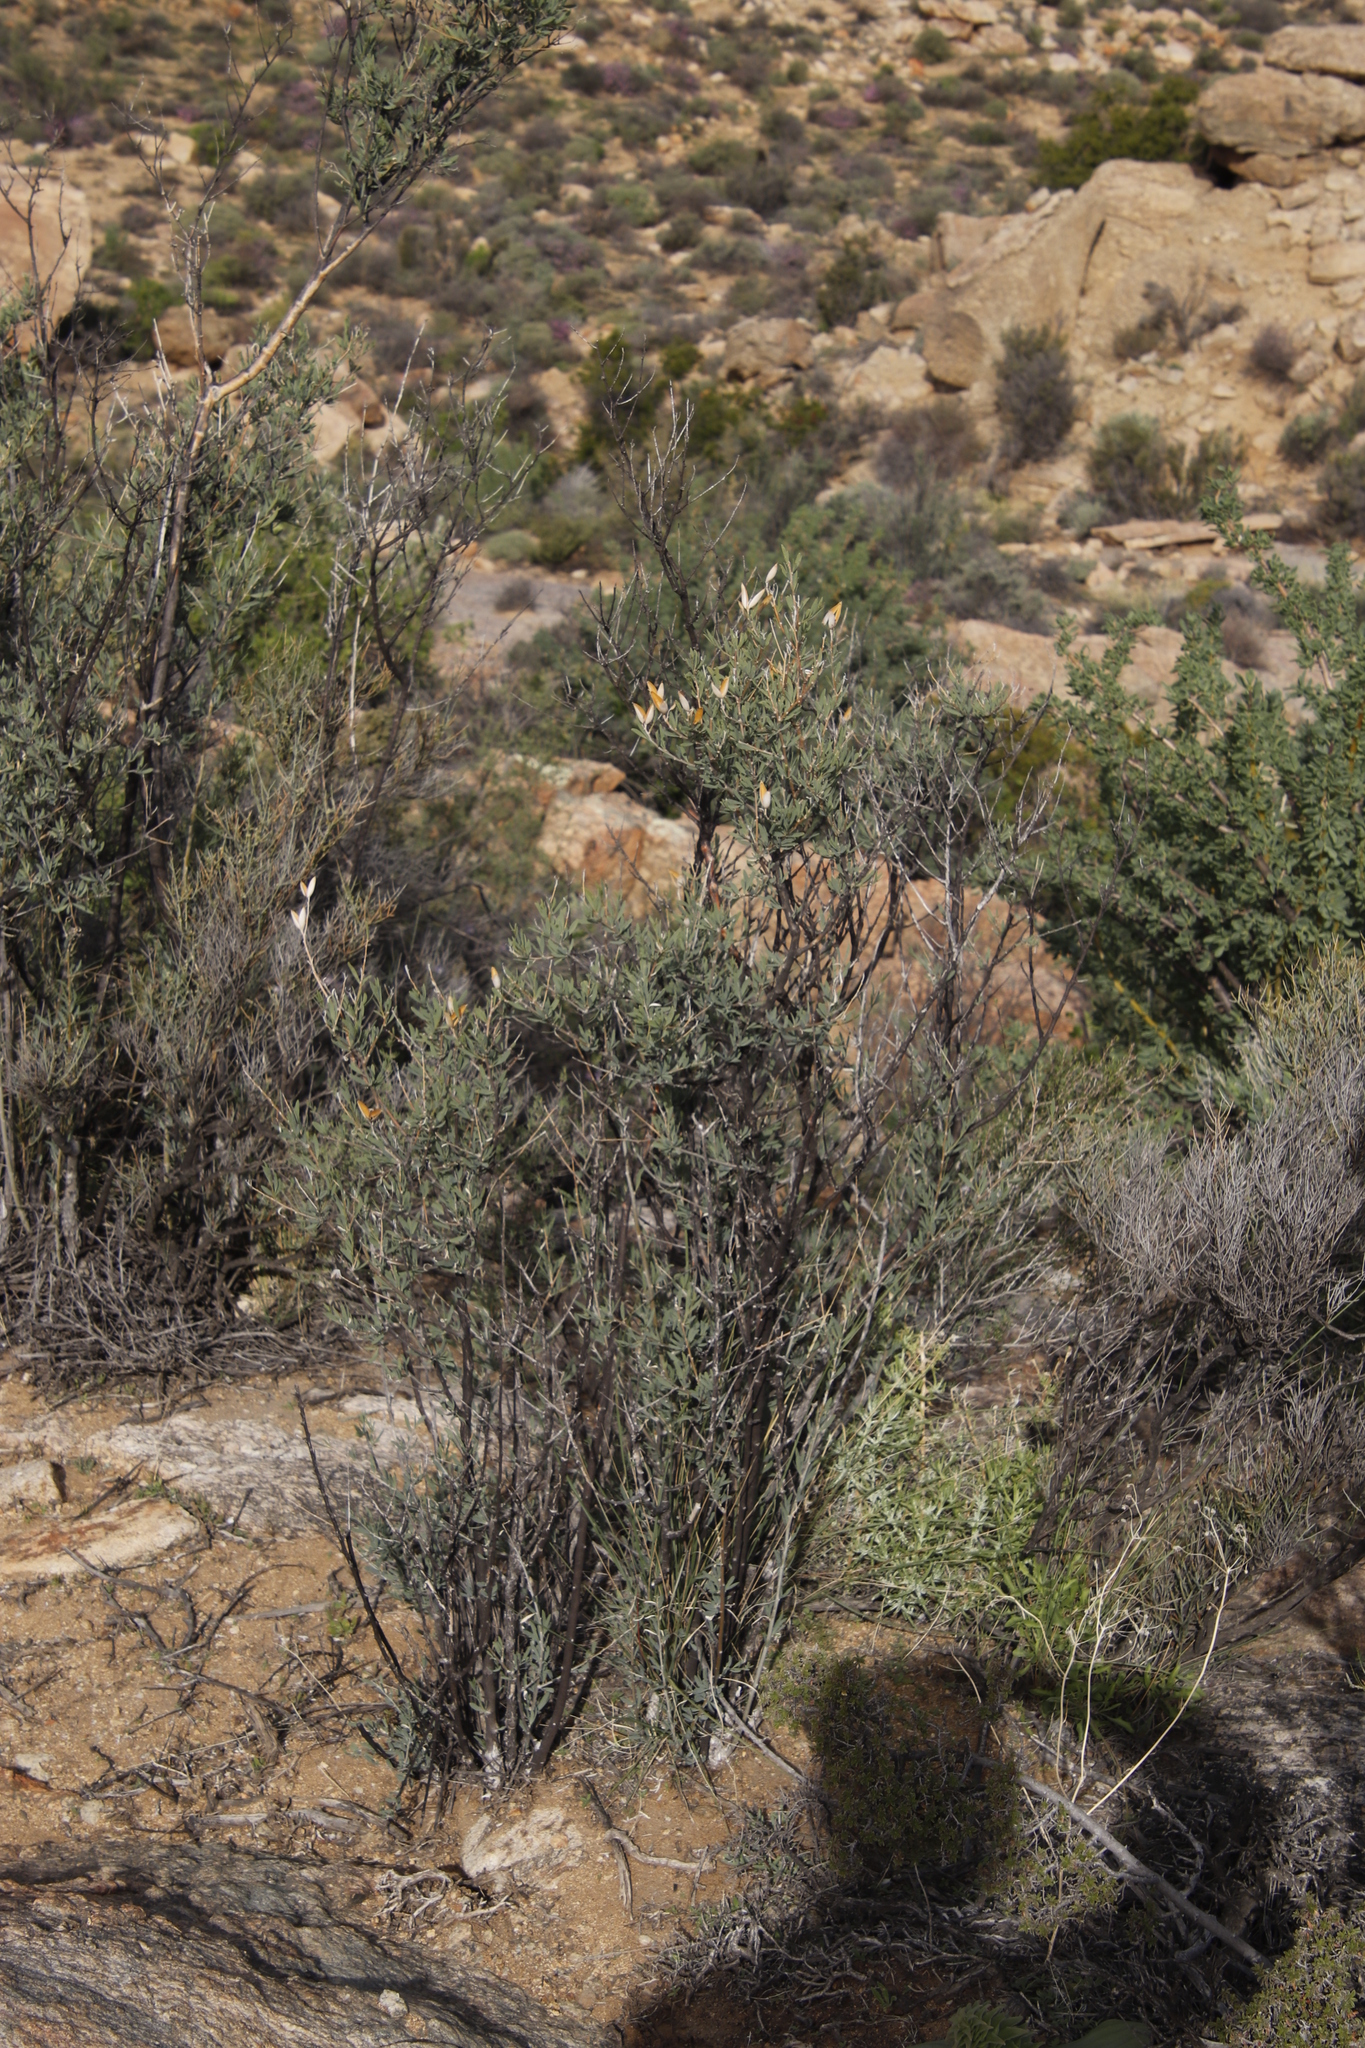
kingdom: Plantae
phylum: Tracheophyta
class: Magnoliopsida
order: Solanales
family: Montiniaceae
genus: Montinia
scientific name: Montinia caryophyllacea
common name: Wild clove-bush
